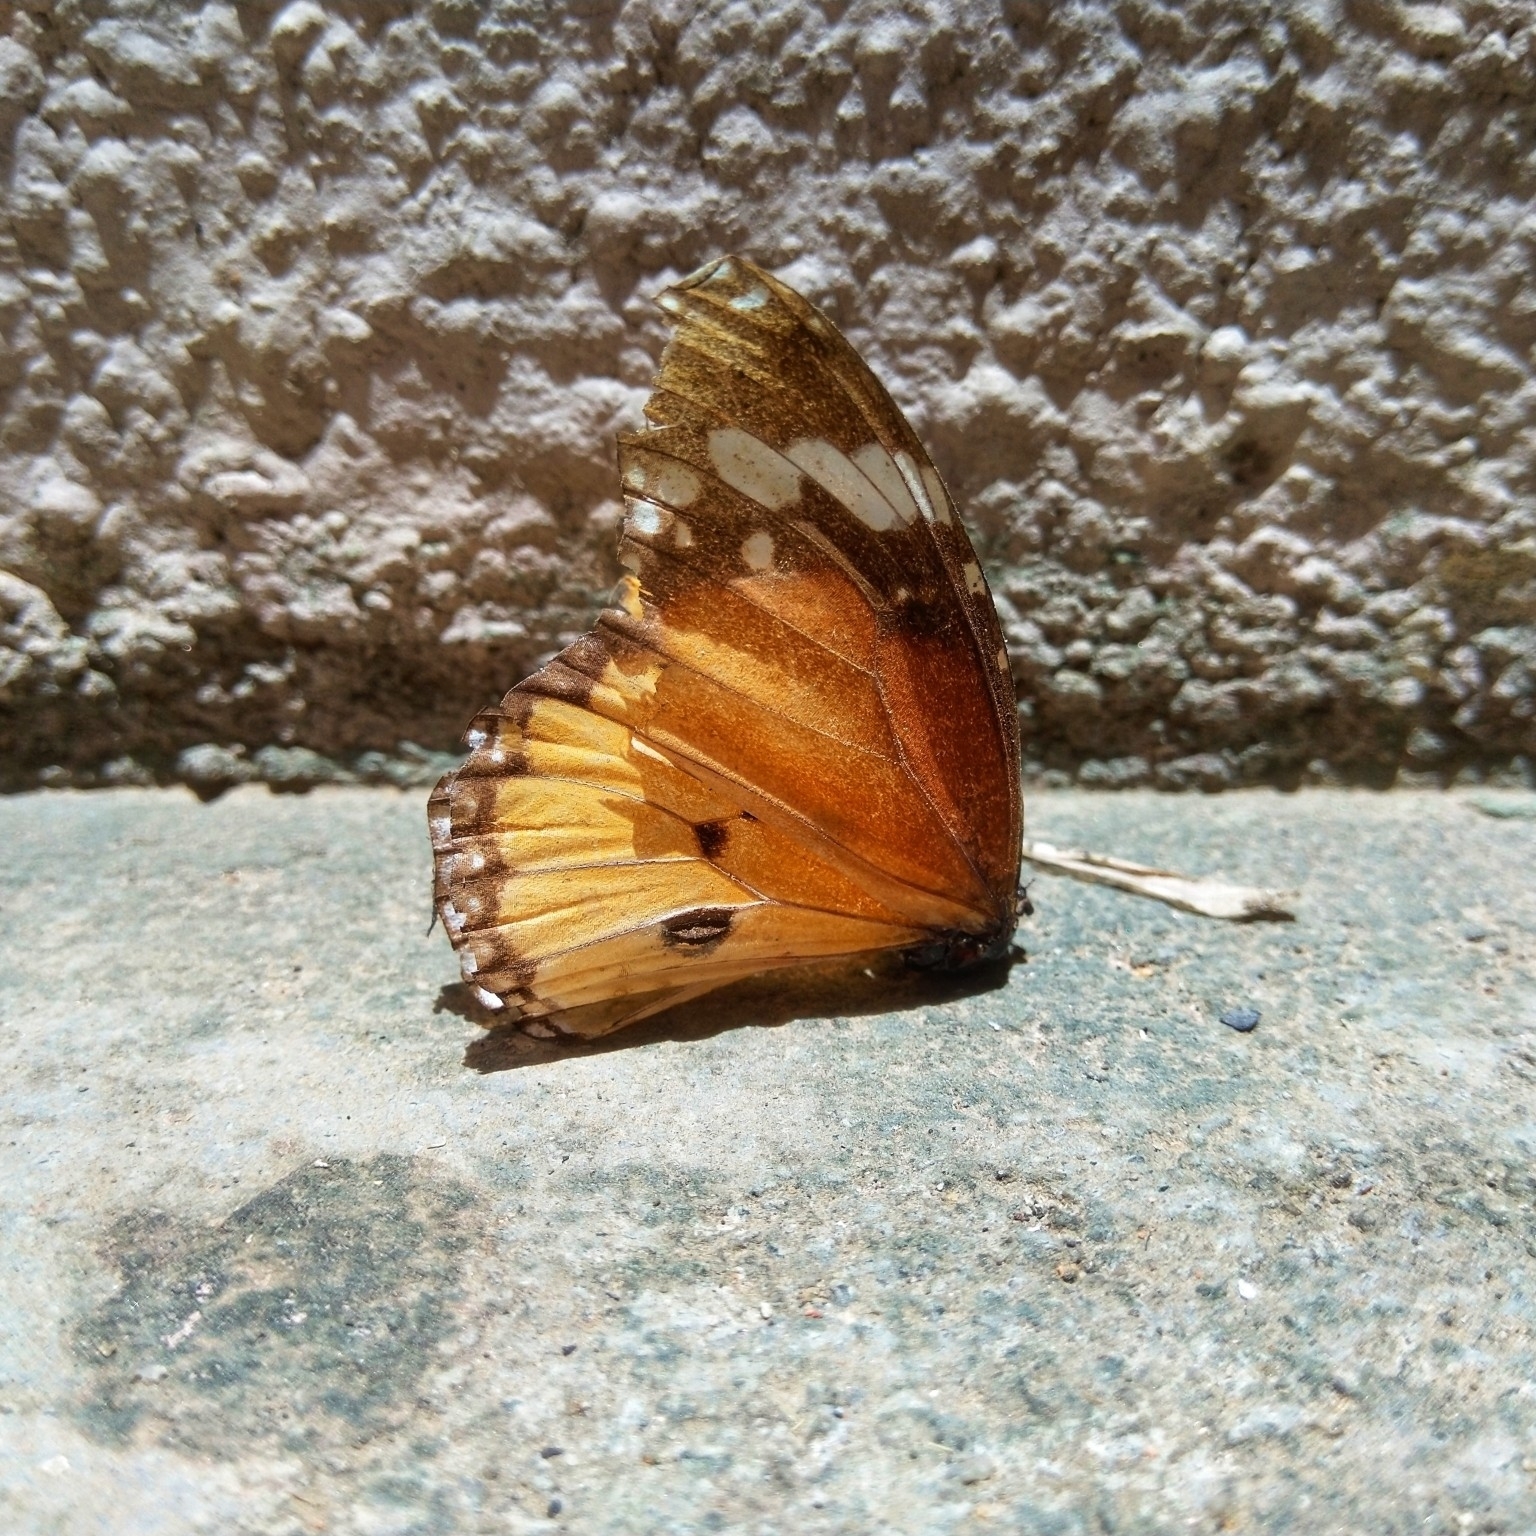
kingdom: Animalia
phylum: Arthropoda
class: Insecta
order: Lepidoptera
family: Nymphalidae
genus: Danaus
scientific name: Danaus chrysippus
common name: Plain tiger
